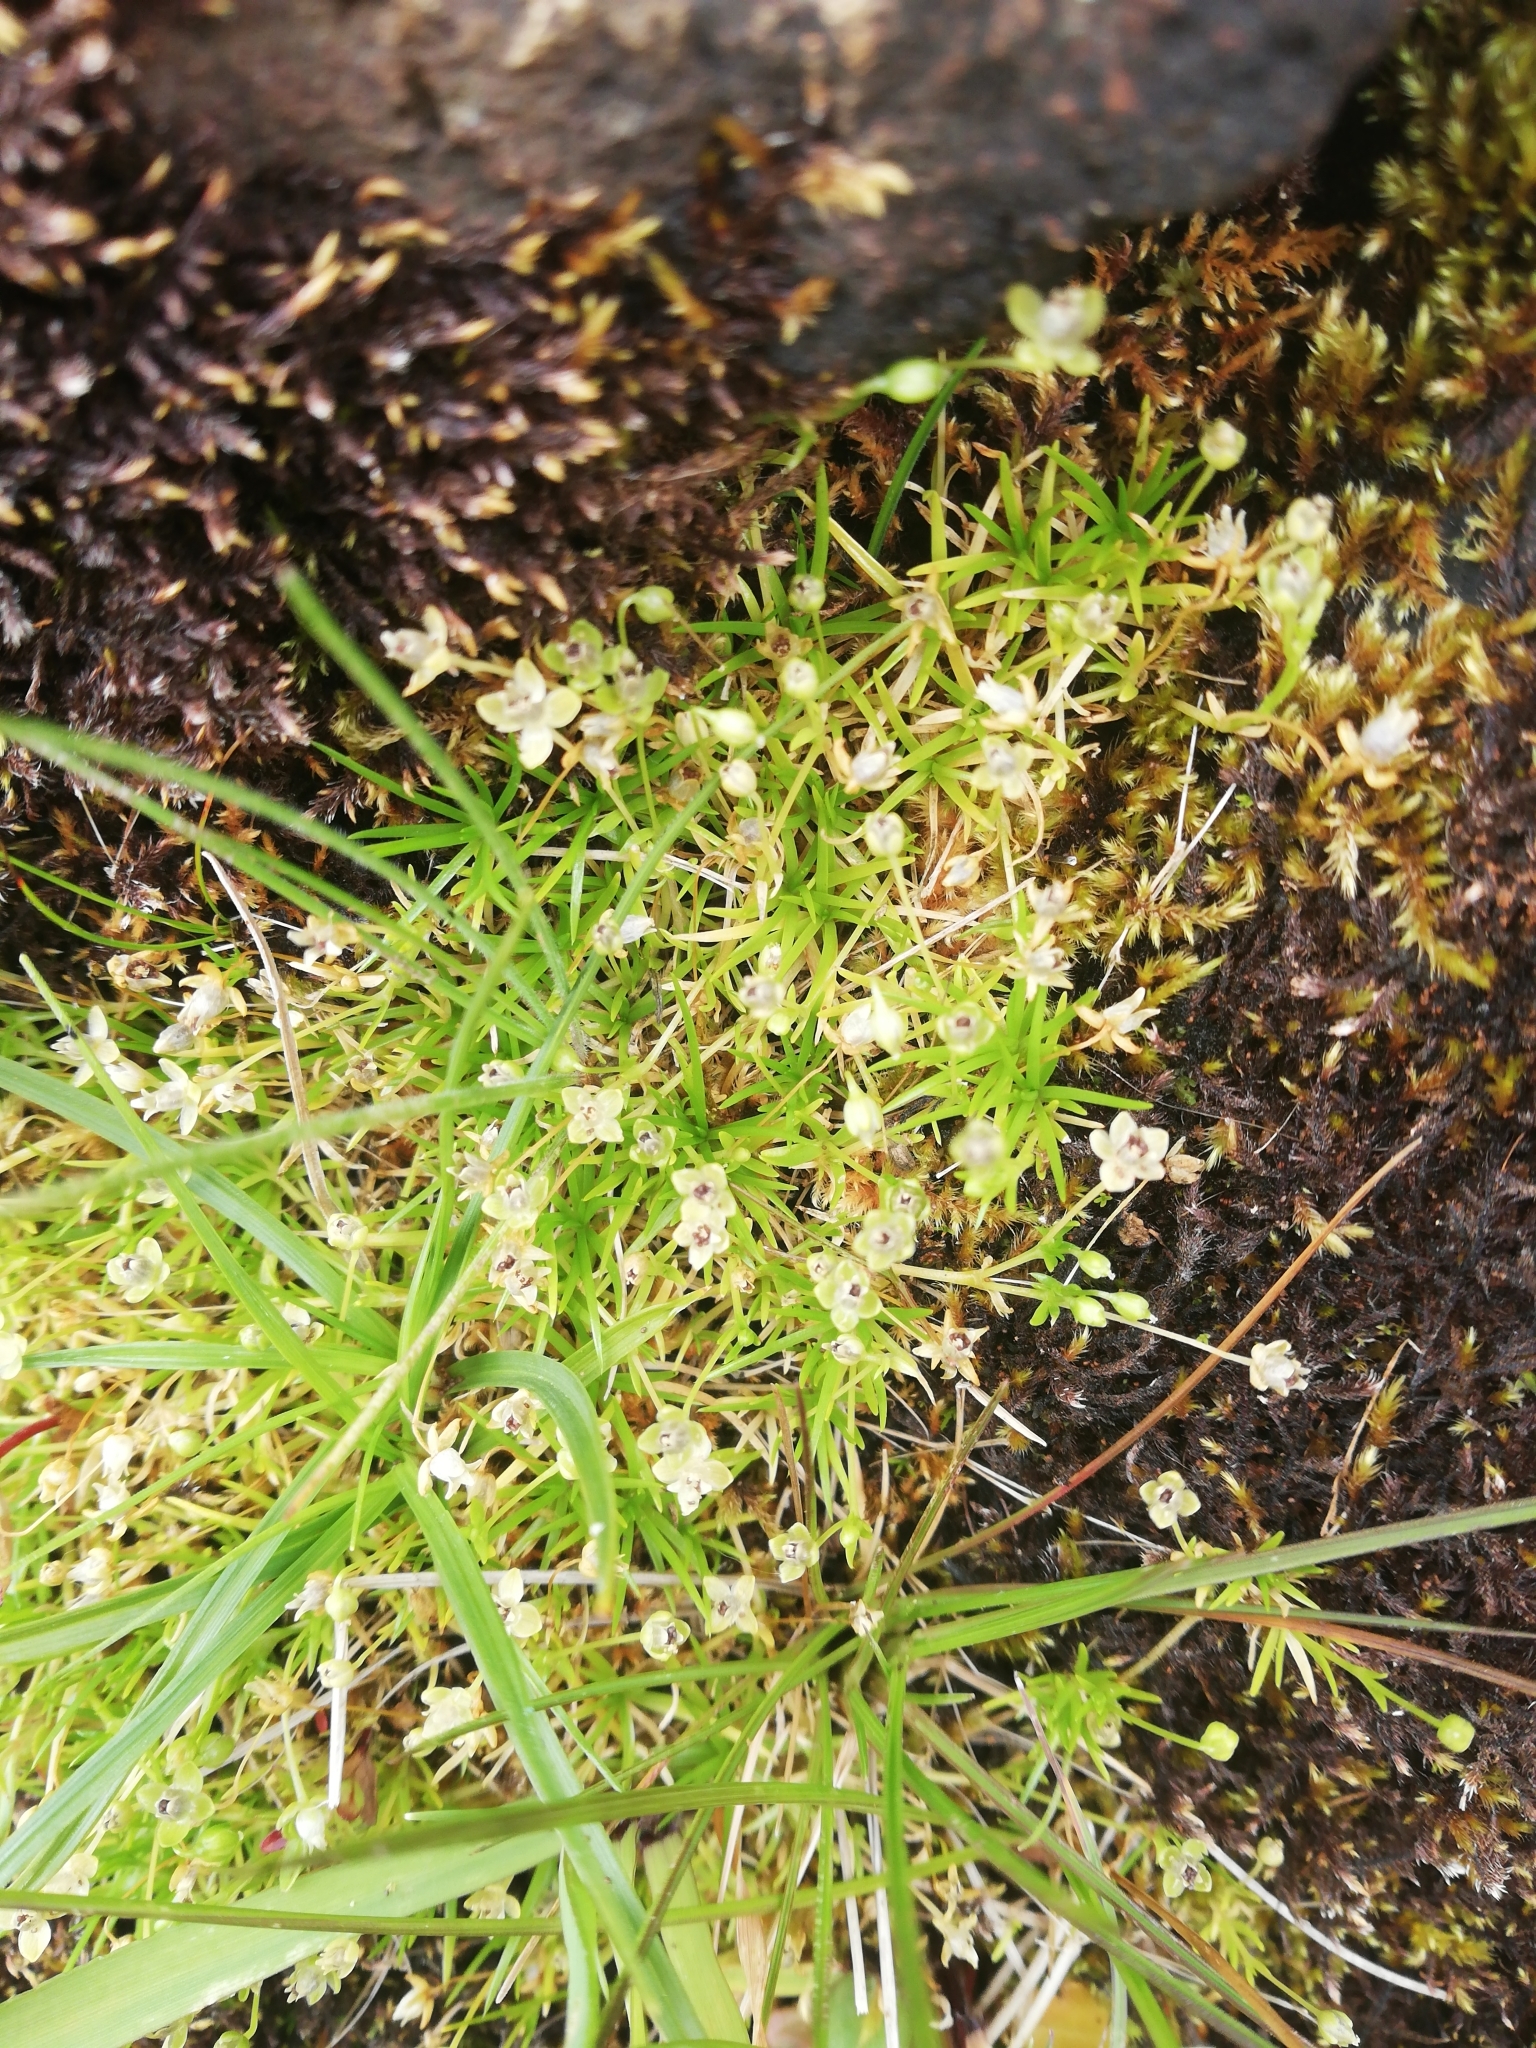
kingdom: Plantae
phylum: Tracheophyta
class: Magnoliopsida
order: Caryophyllales
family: Caryophyllaceae
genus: Sagina
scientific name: Sagina procumbens
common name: Procumbent pearlwort
